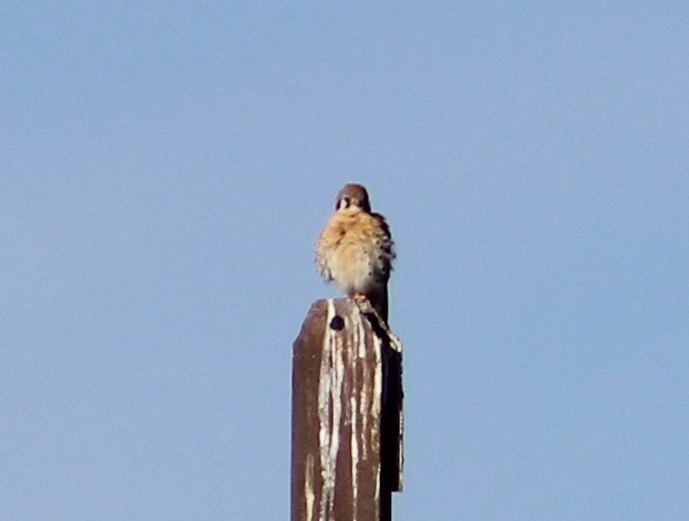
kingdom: Animalia
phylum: Chordata
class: Aves
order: Falconiformes
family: Falconidae
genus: Falco
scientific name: Falco sparverius
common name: American kestrel
